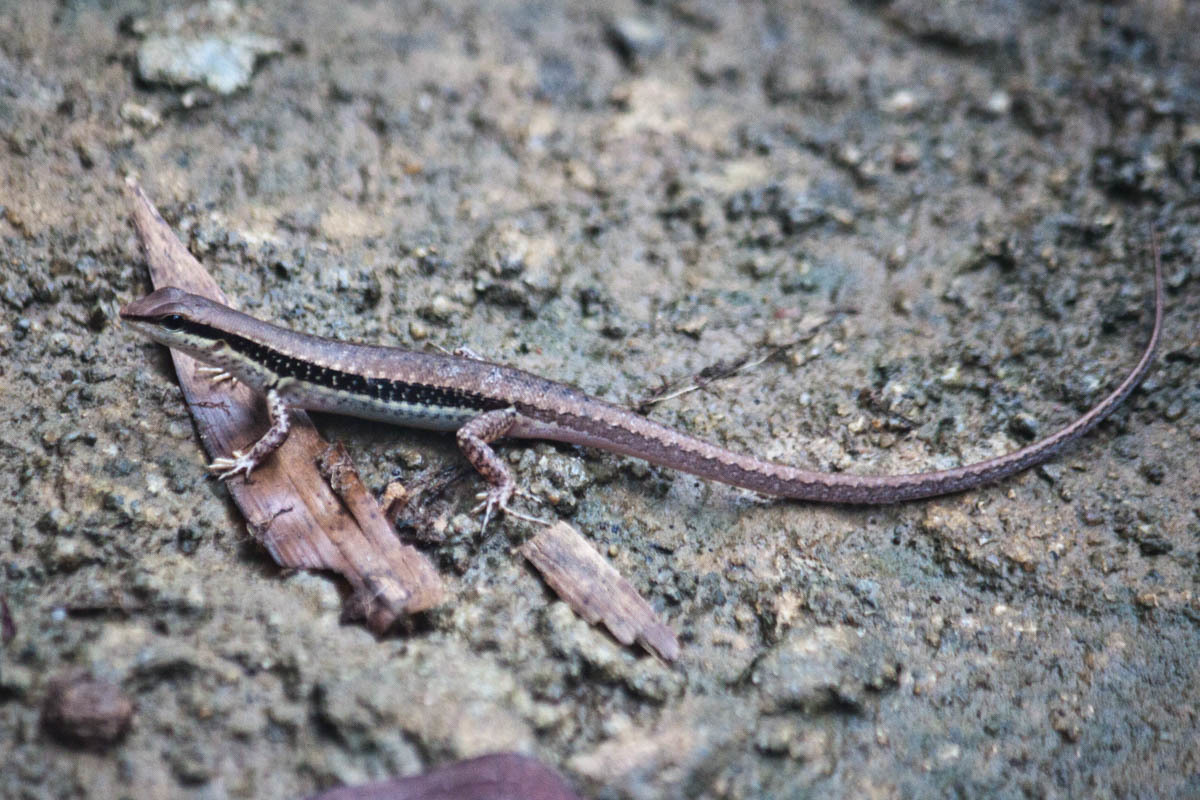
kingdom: Animalia
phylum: Chordata
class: Squamata
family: Scincidae
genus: Sphenomorphus
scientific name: Sphenomorphus maculatus
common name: Maculated forest skink
